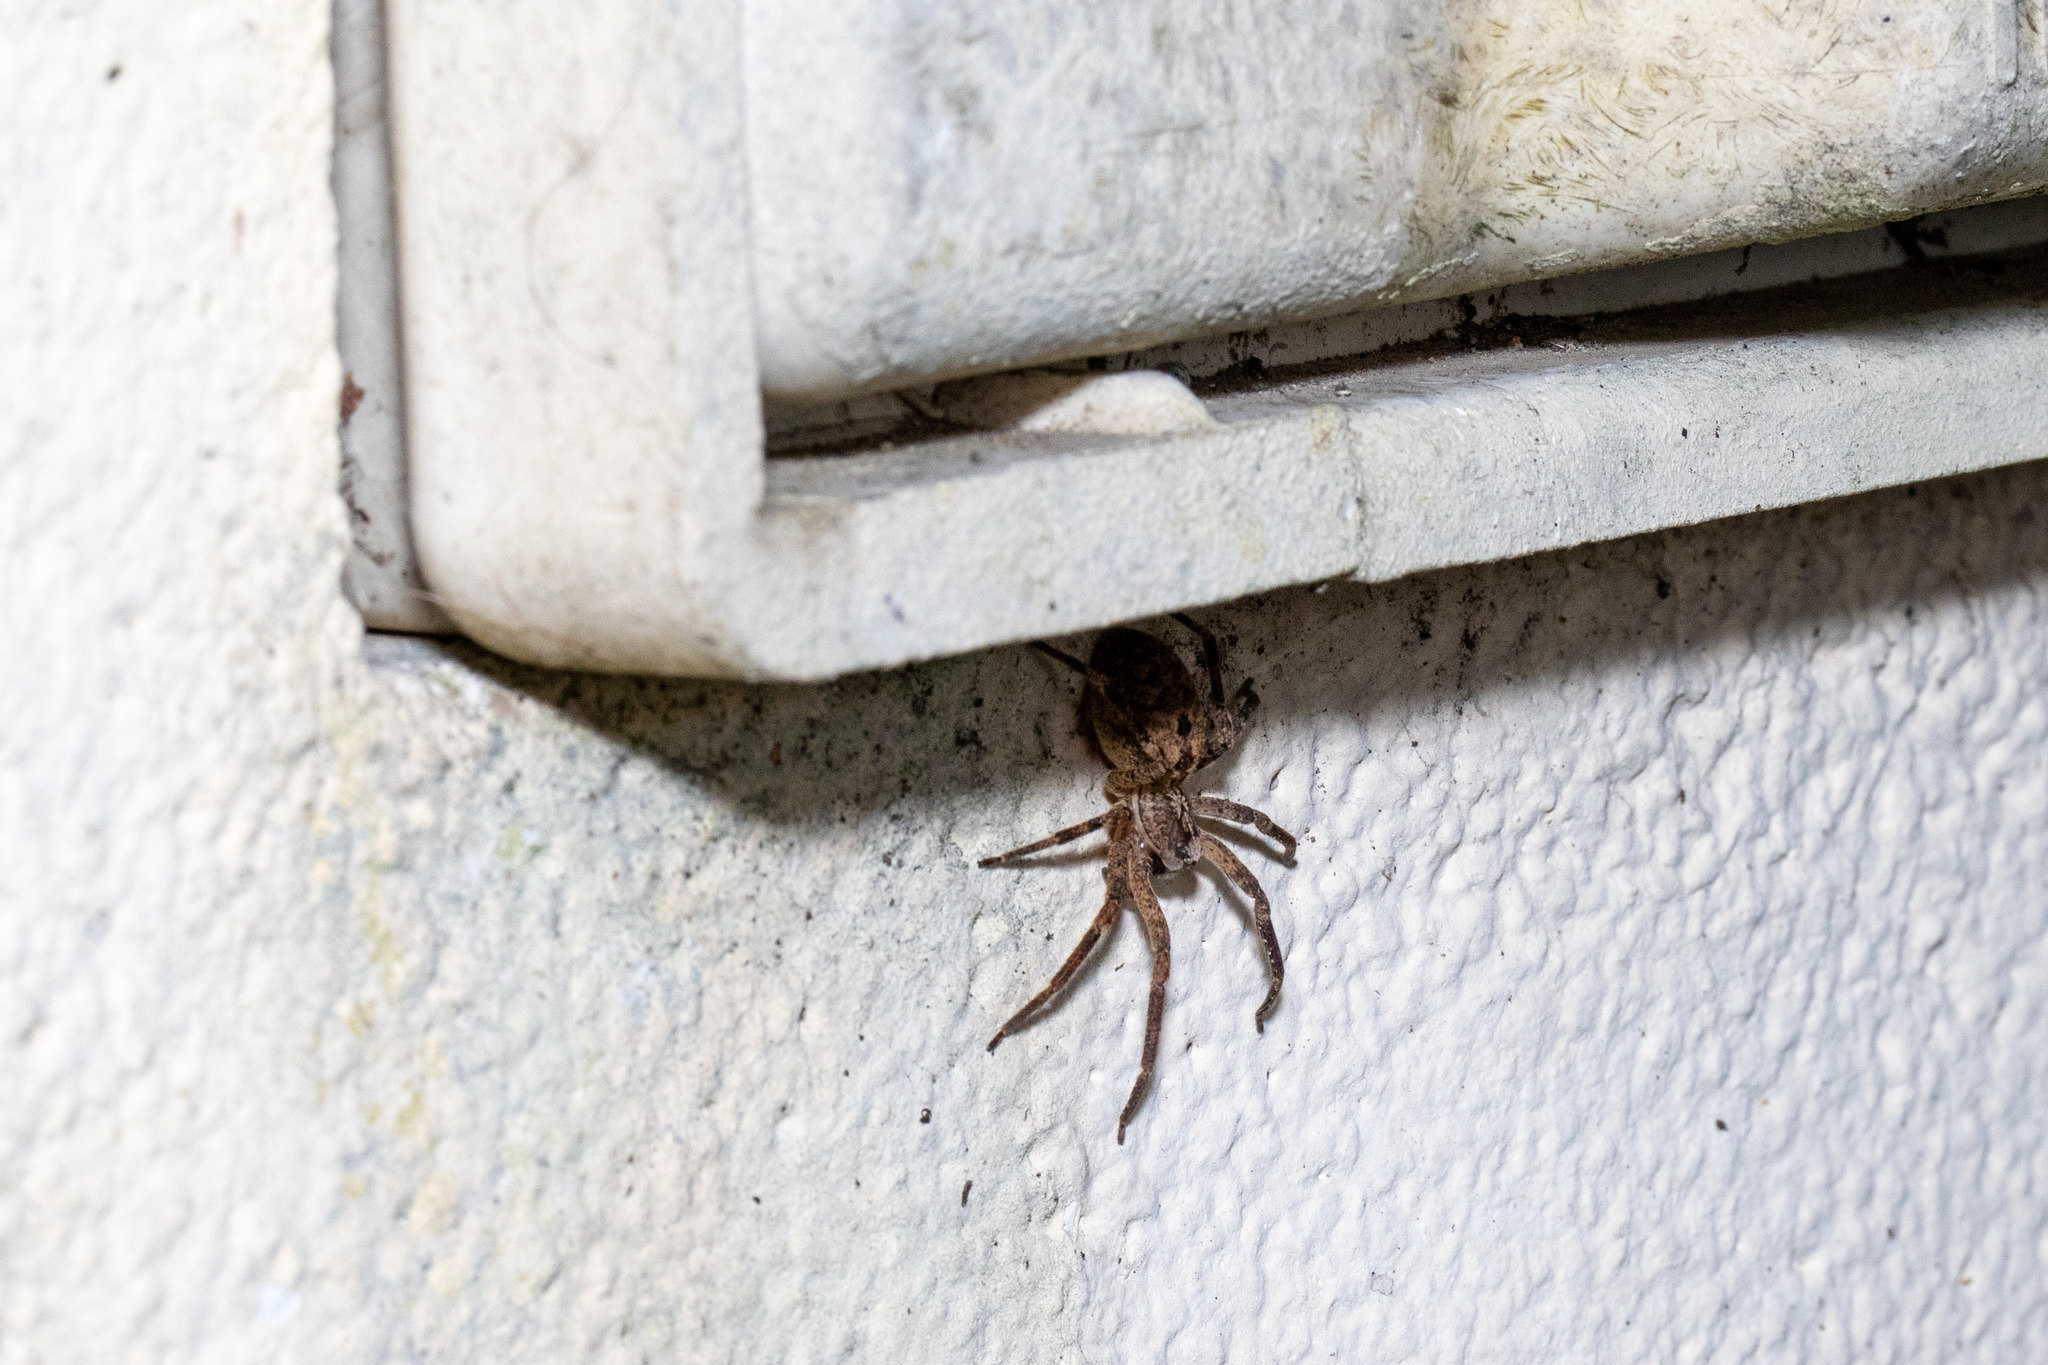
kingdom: Animalia
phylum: Arthropoda
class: Arachnida
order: Araneae
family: Zoropsidae
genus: Zoropsis
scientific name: Zoropsis spinimana
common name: Zoropsid spider
